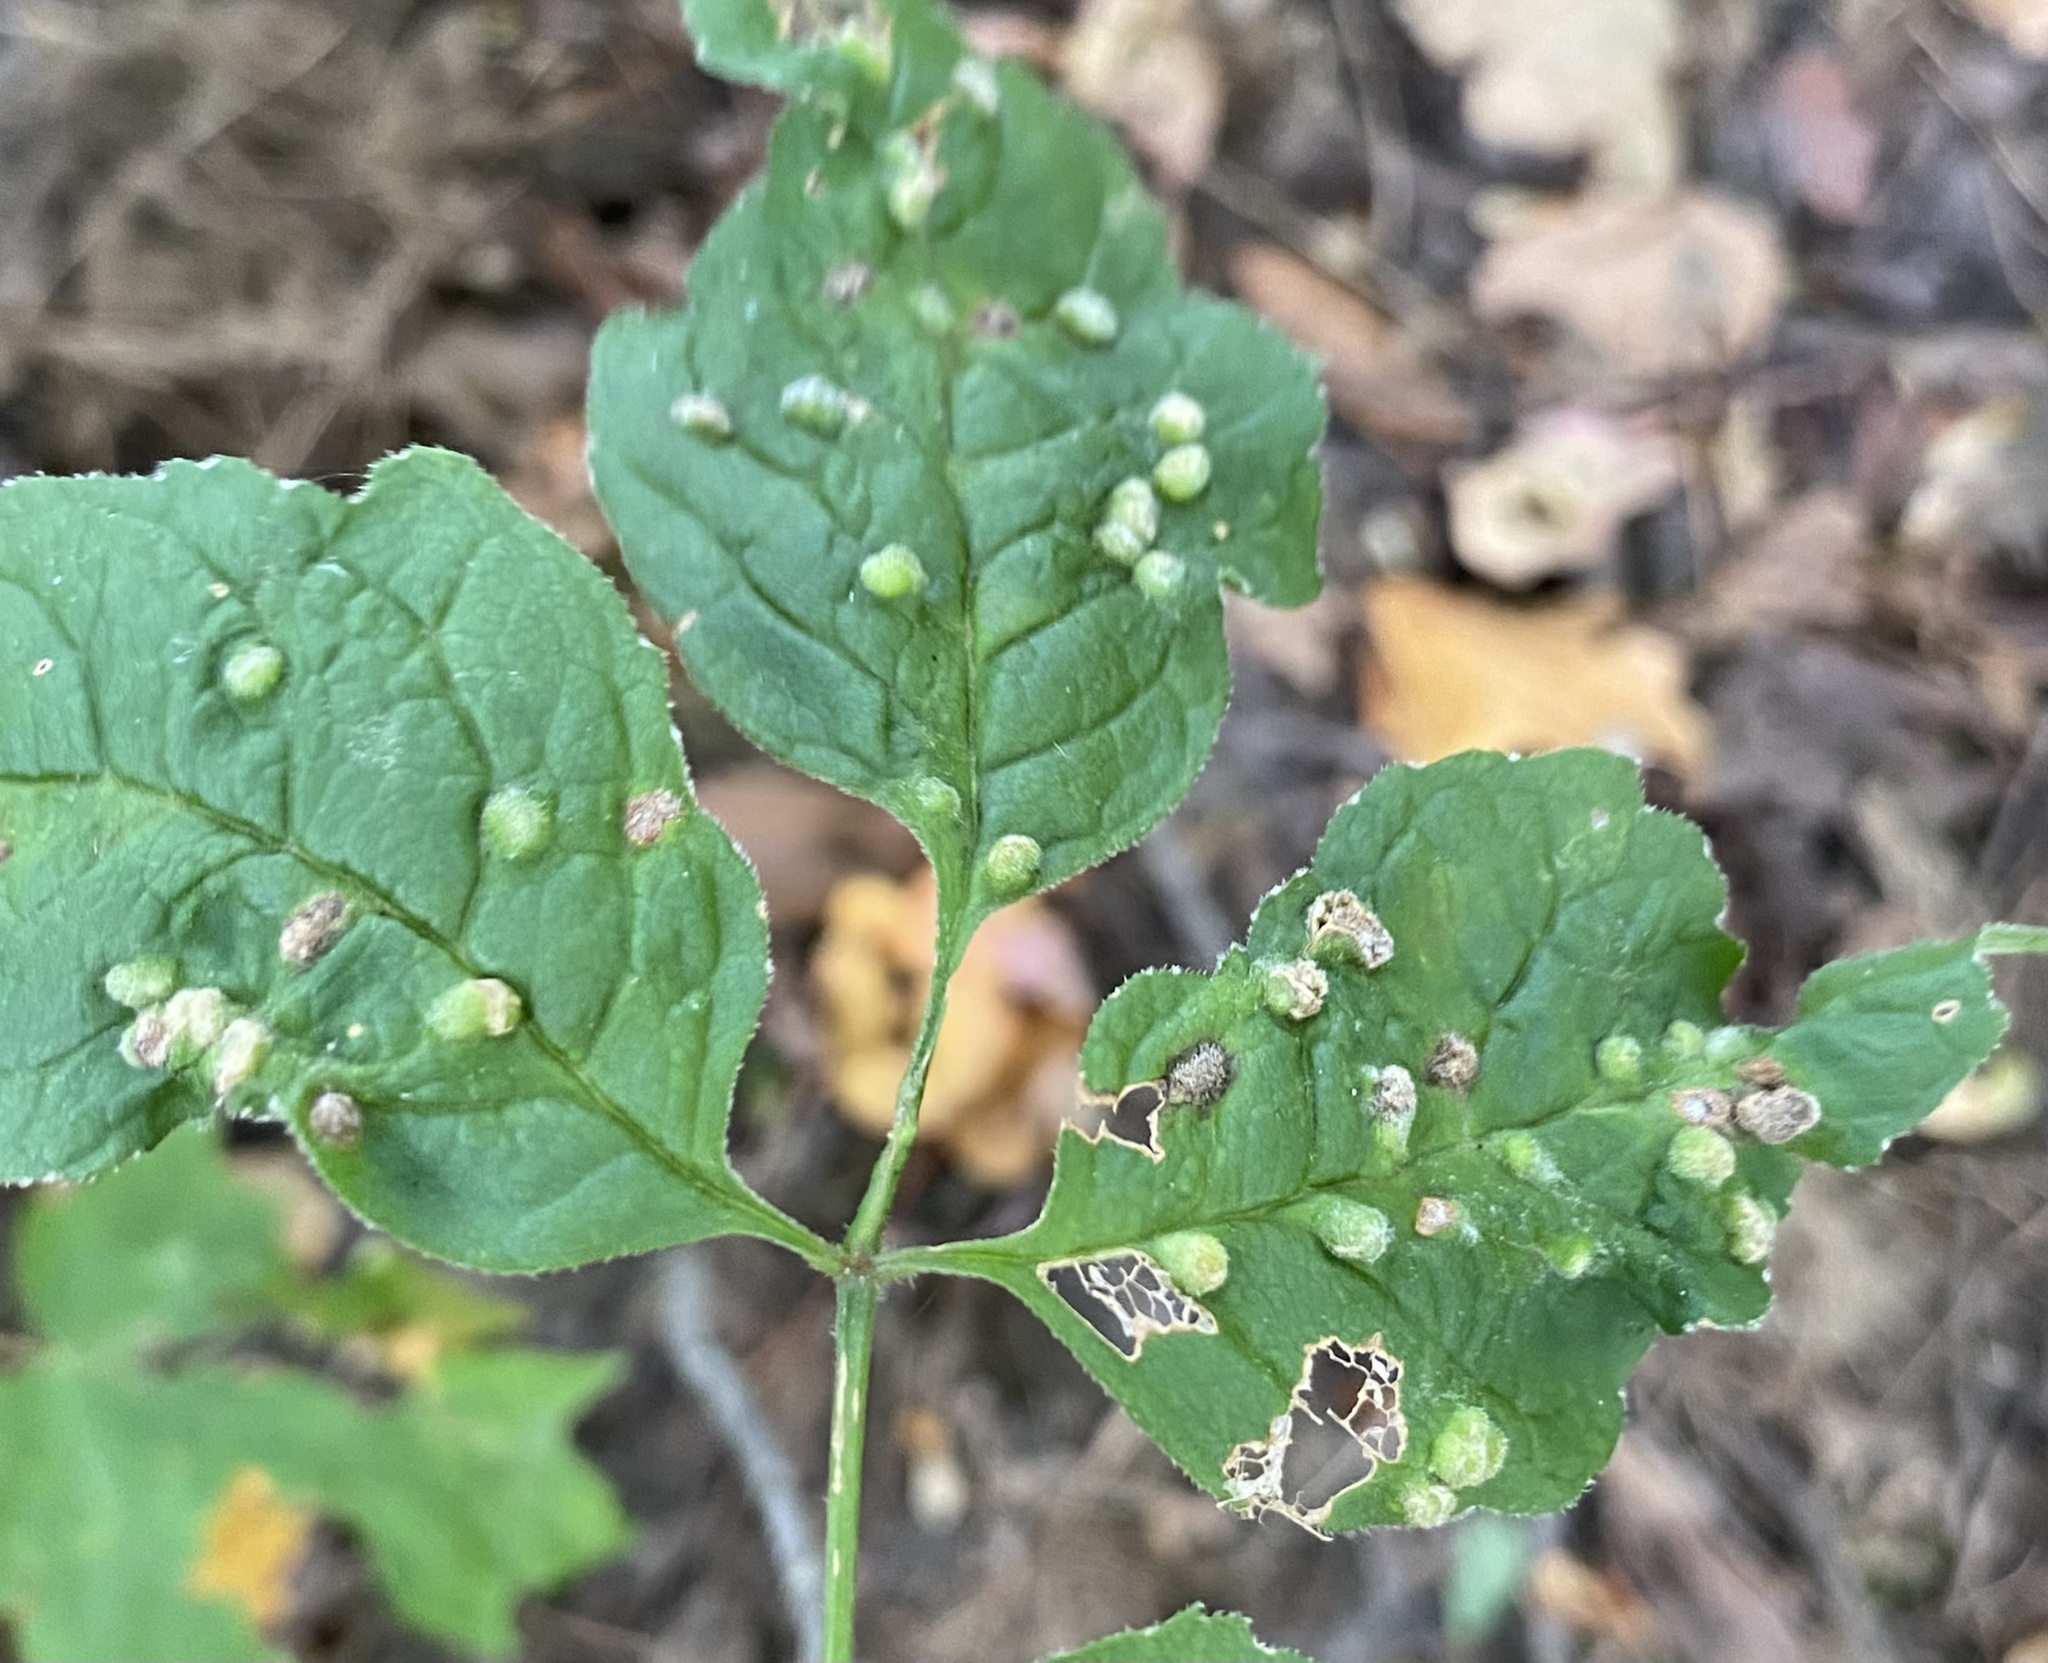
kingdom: Animalia
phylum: Arthropoda
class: Arachnida
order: Trombidiformes
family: Eriophyidae
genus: Aceria
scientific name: Aceria fraxinicola
